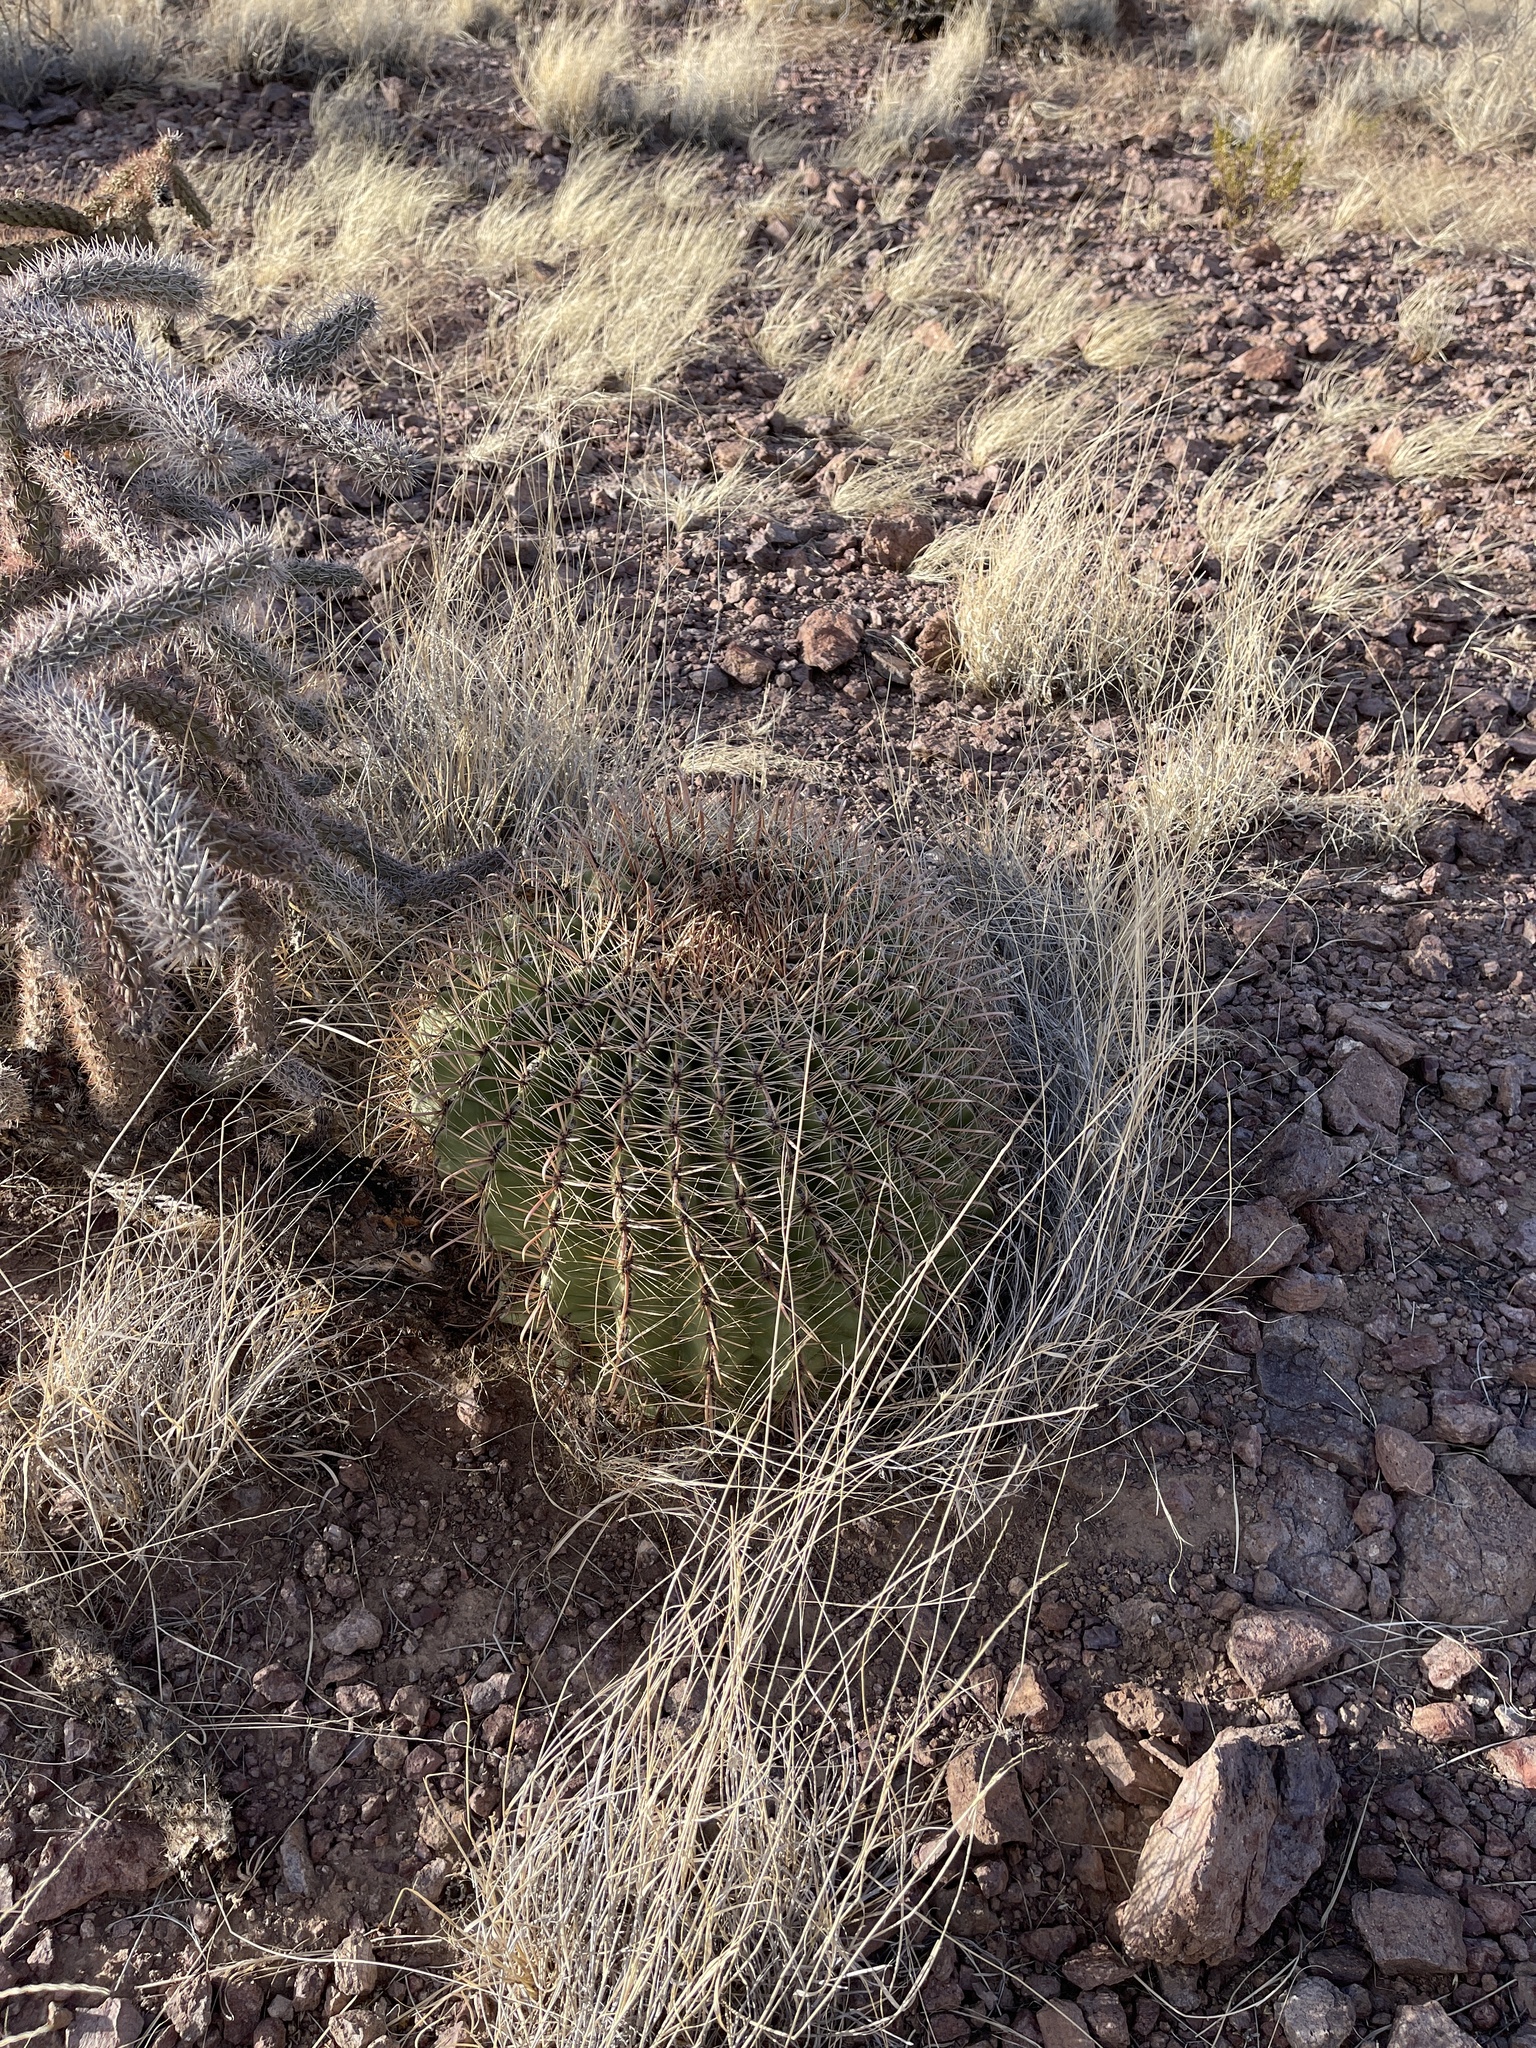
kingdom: Plantae
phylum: Tracheophyta
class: Magnoliopsida
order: Caryophyllales
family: Cactaceae
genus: Ferocactus
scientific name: Ferocactus wislizeni
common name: Candy barrel cactus
